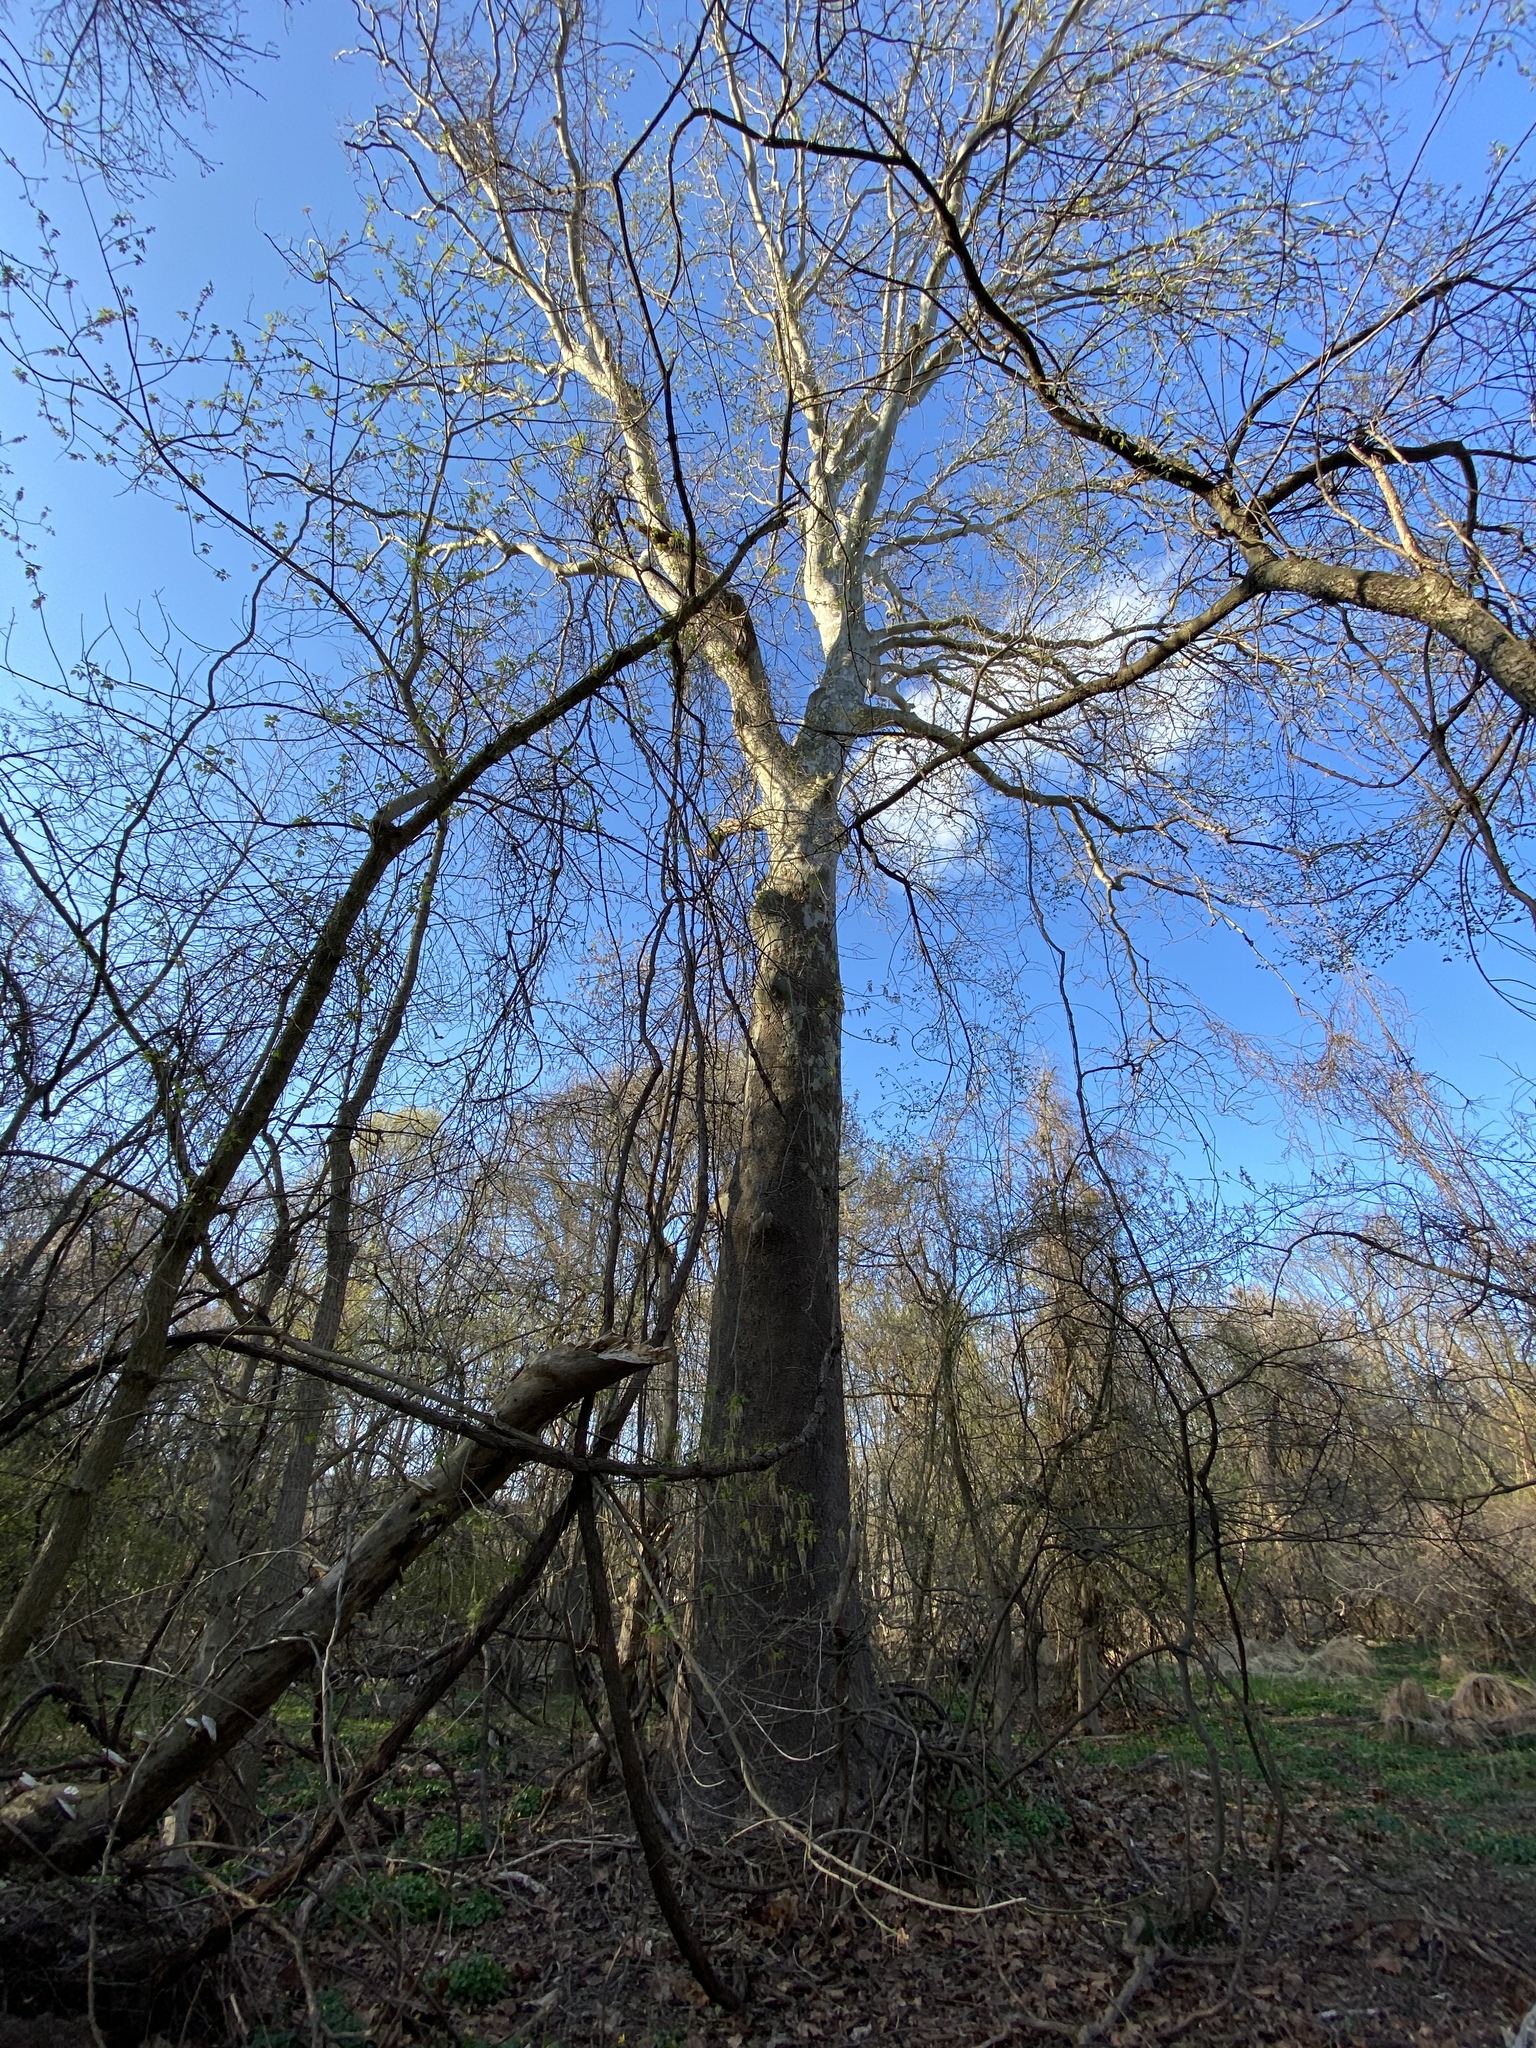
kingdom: Plantae
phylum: Tracheophyta
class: Magnoliopsida
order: Proteales
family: Platanaceae
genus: Platanus
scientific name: Platanus occidentalis
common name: American sycamore
